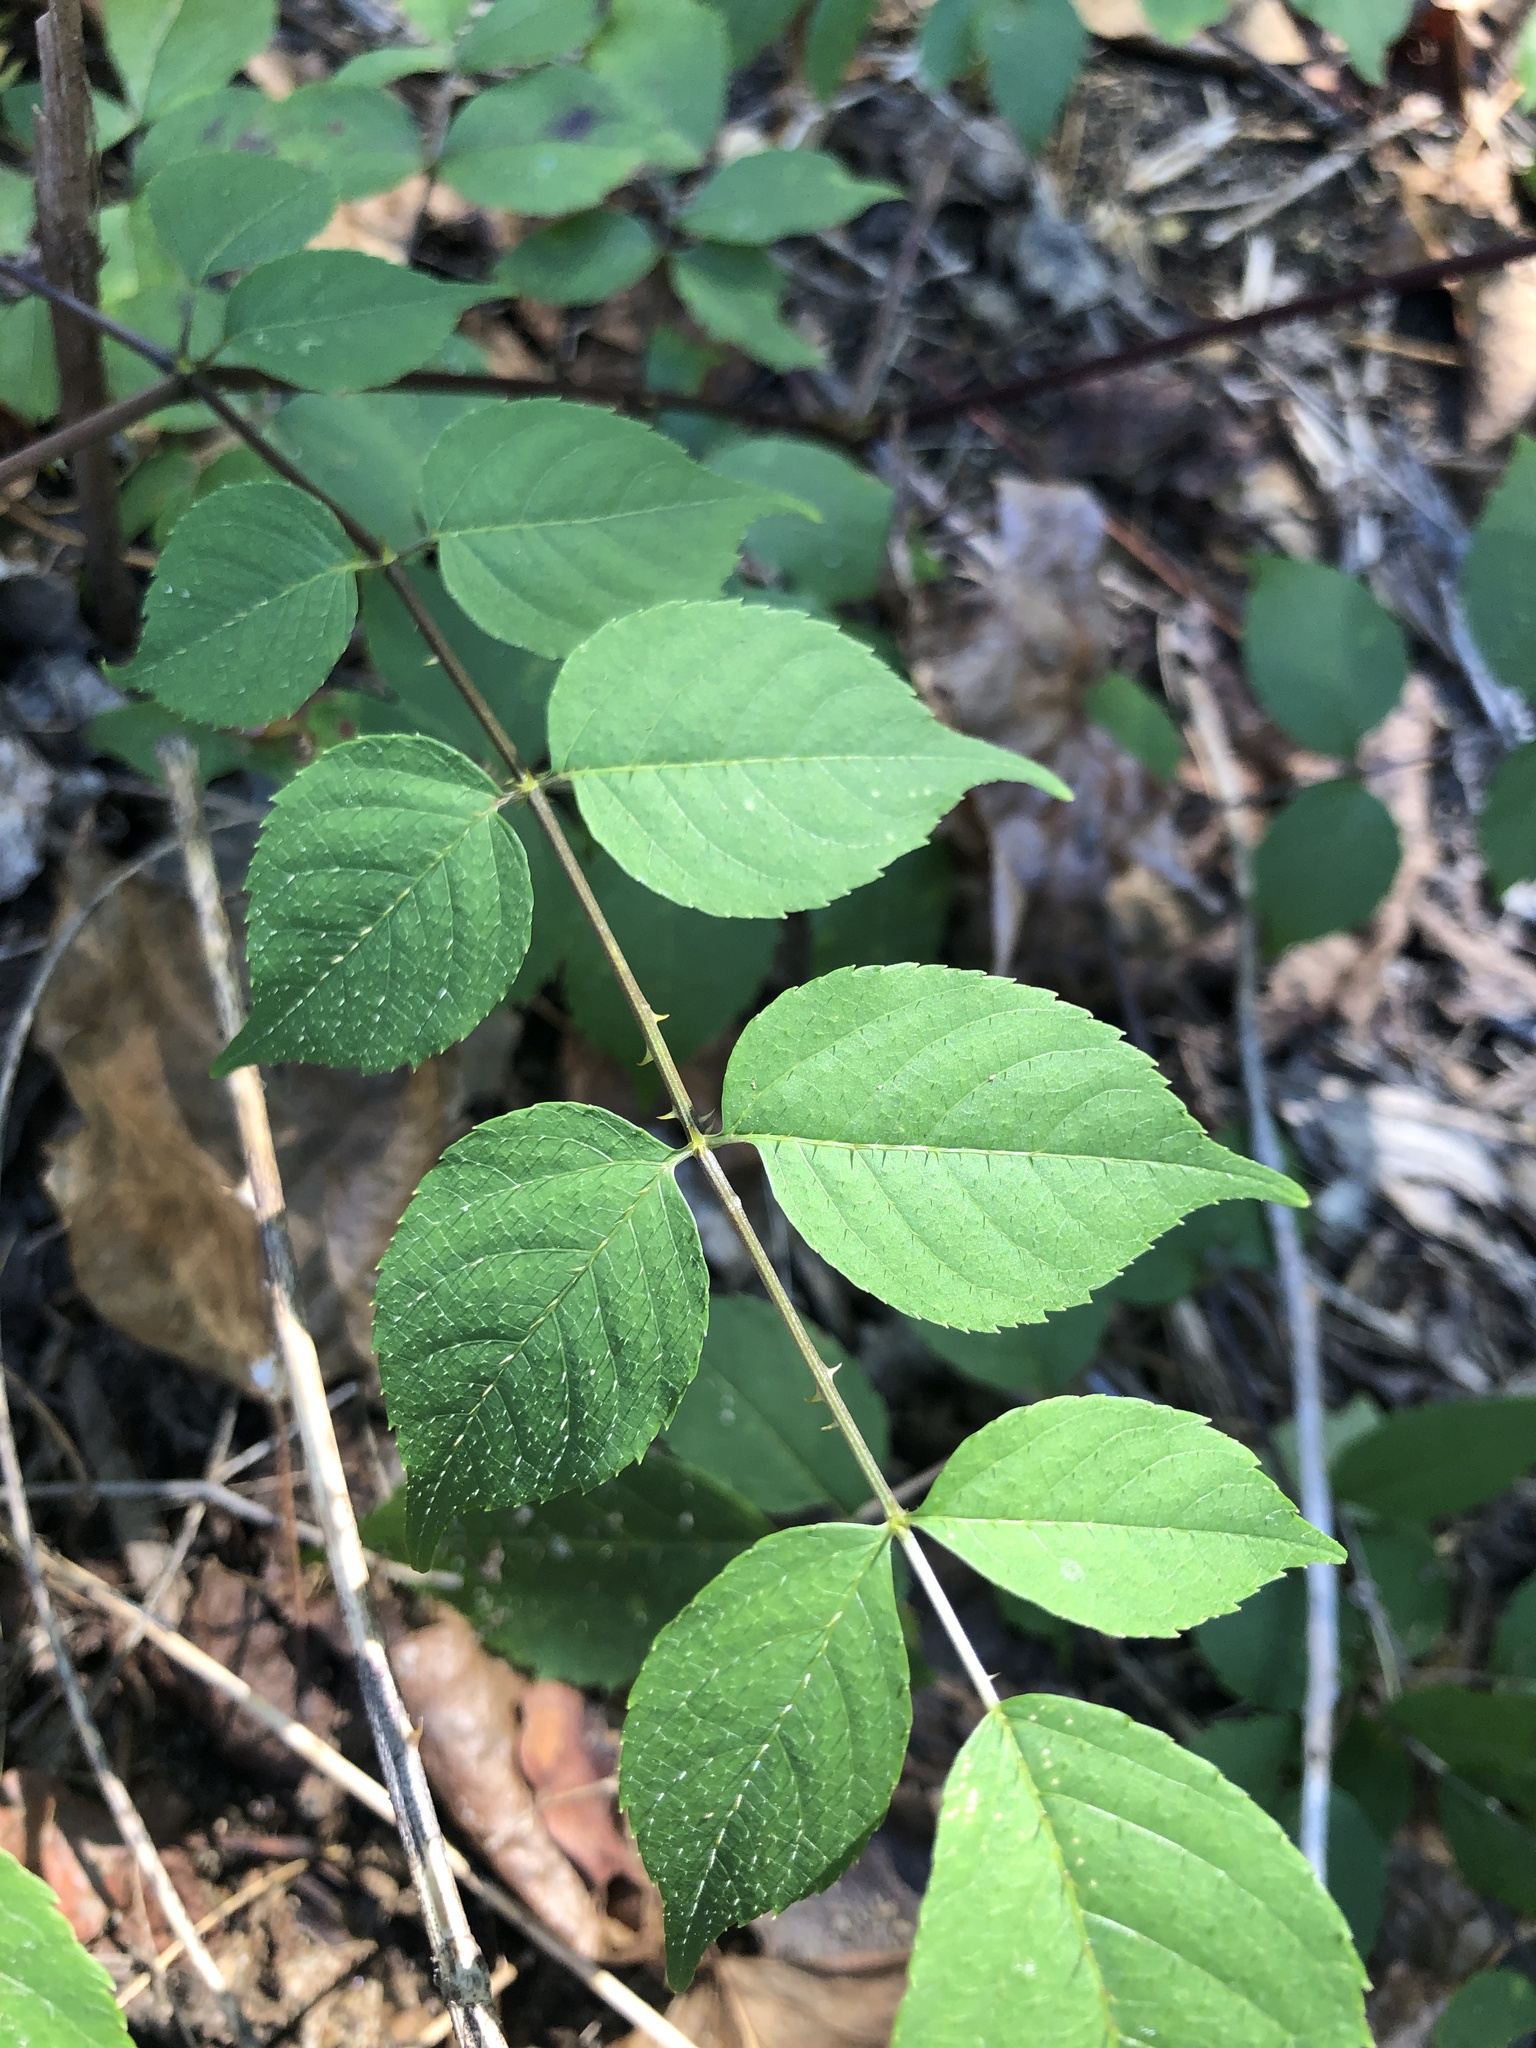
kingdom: Plantae
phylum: Tracheophyta
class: Magnoliopsida
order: Apiales
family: Araliaceae
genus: Aralia
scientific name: Aralia spinosa
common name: Hercules'-club
